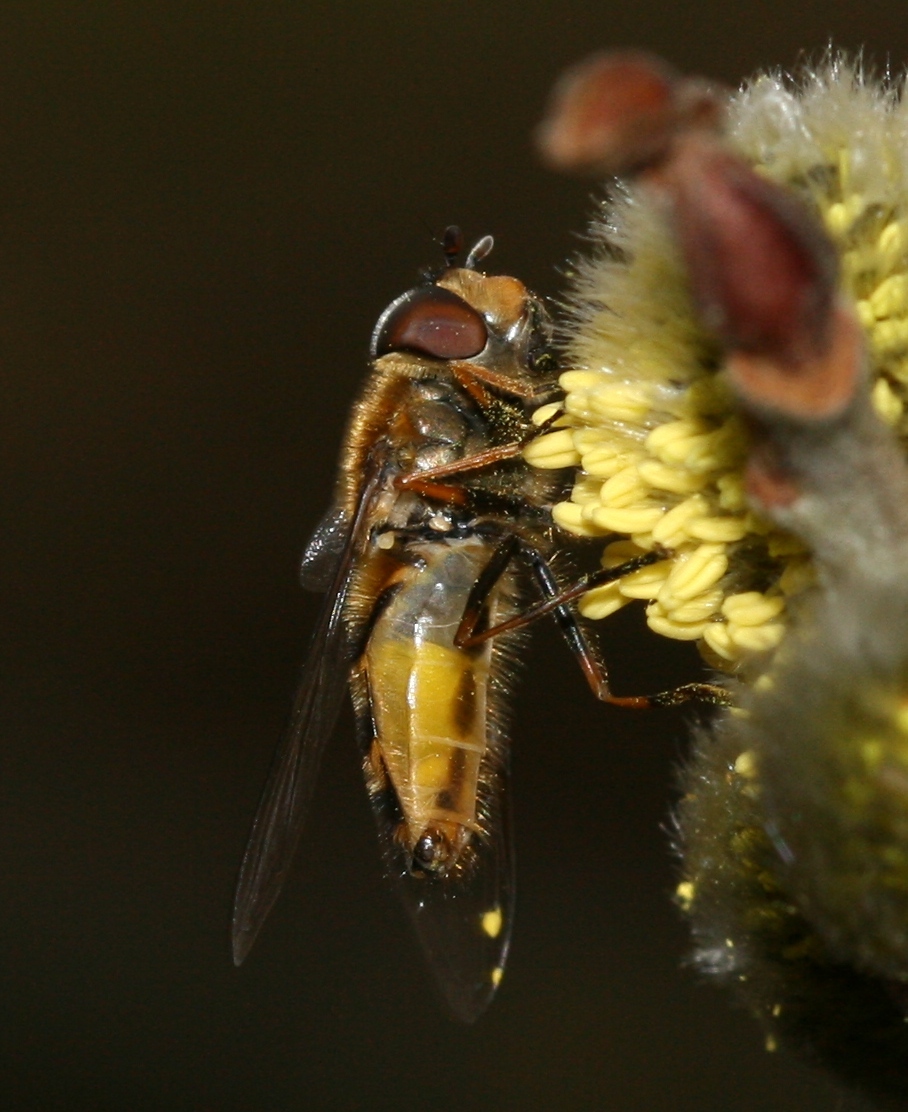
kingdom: Animalia
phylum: Arthropoda
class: Insecta
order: Diptera
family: Syrphidae
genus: Syrphus
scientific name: Syrphus torvus
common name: Hairy-eyed flower fly
